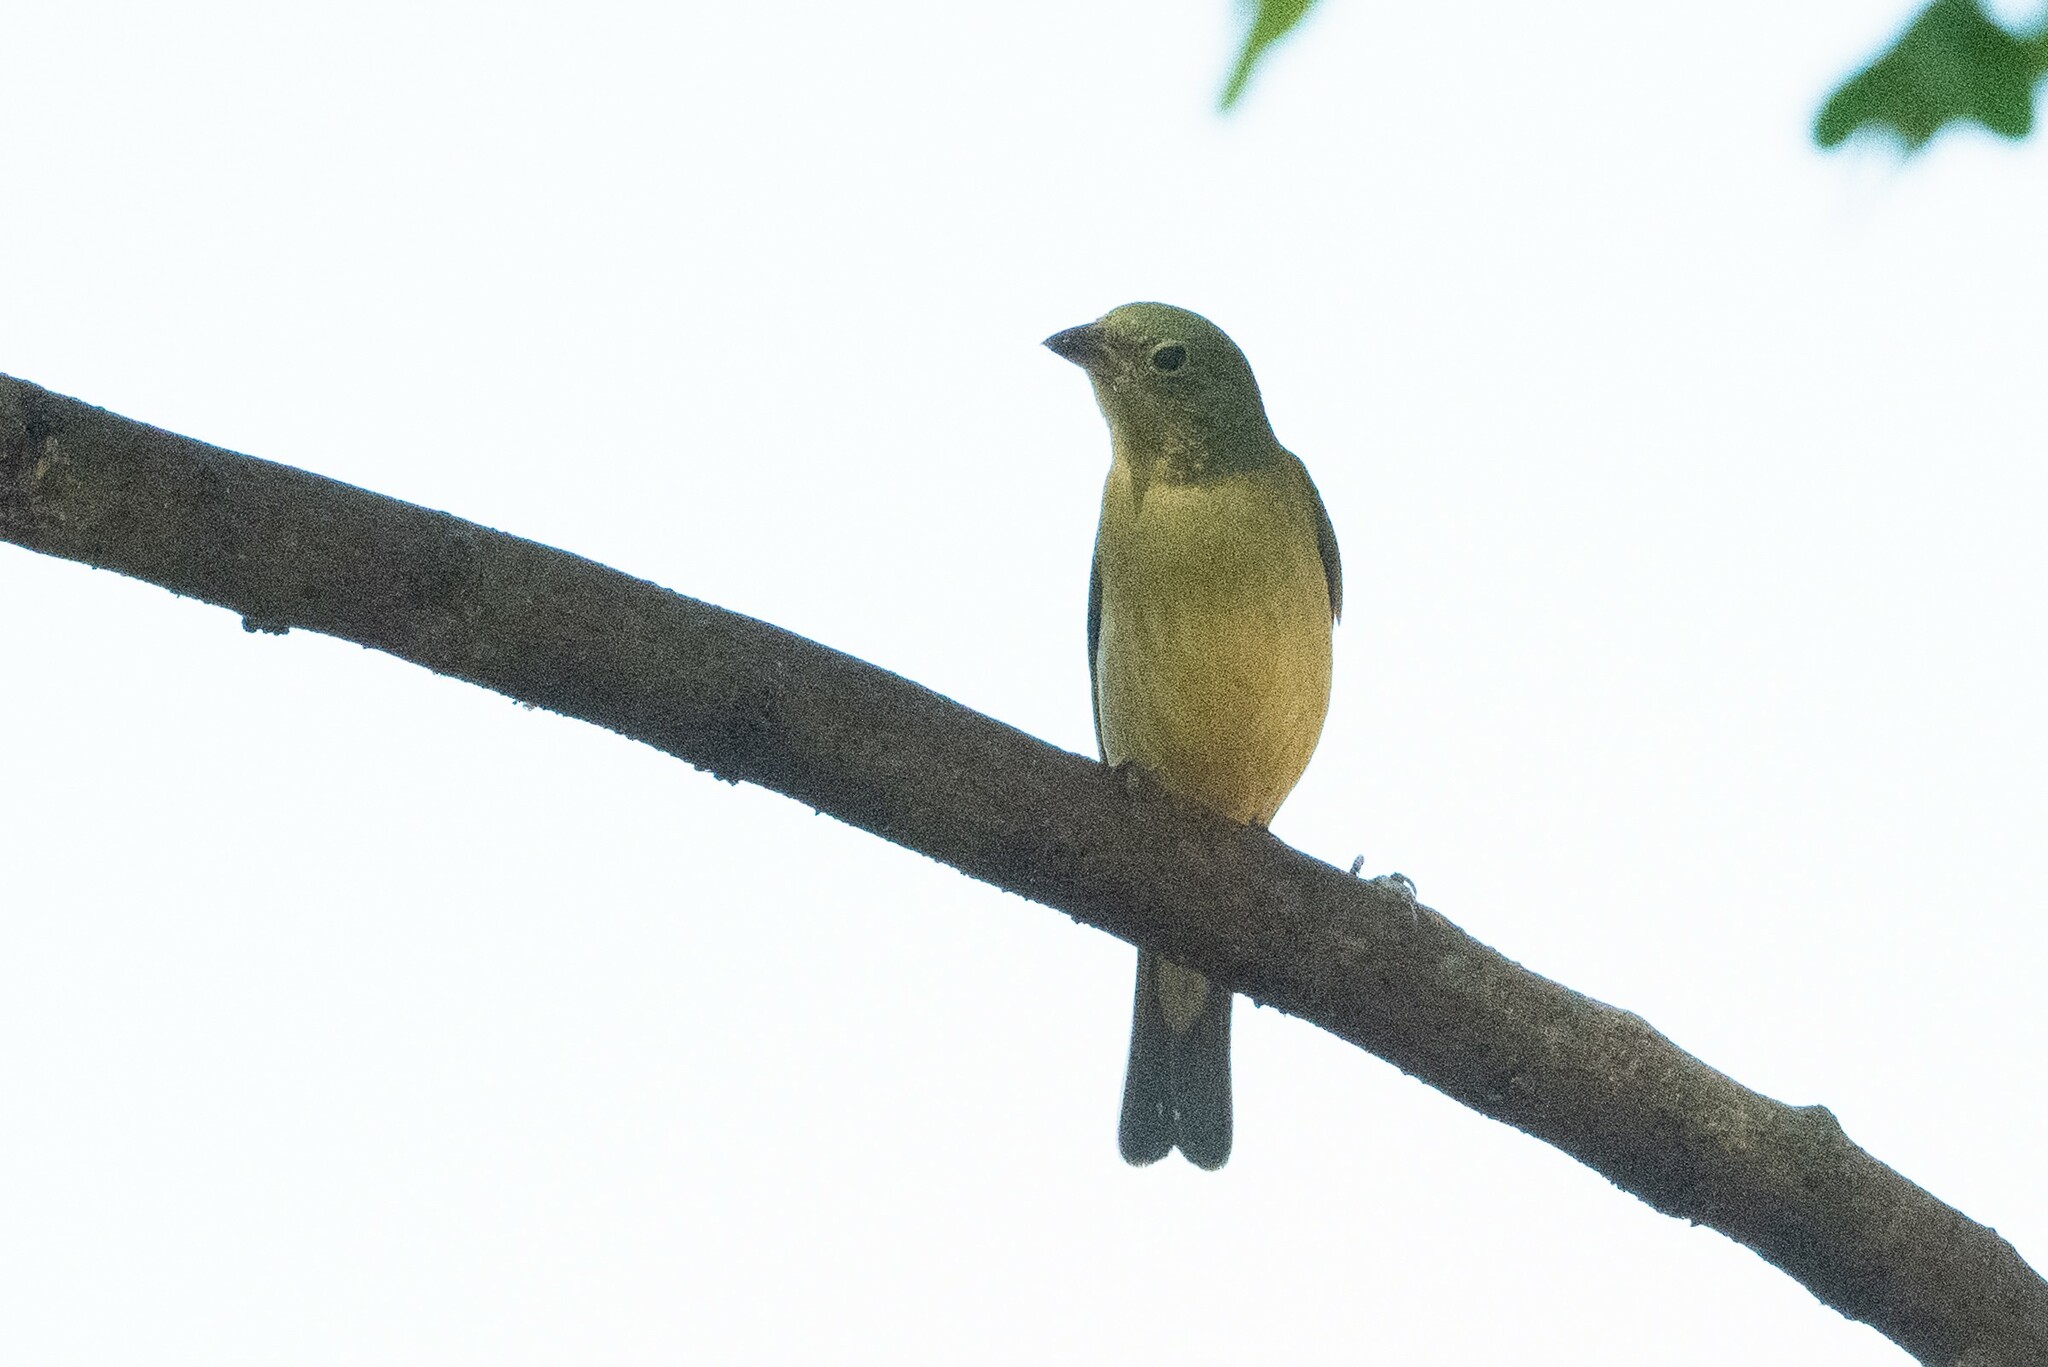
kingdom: Animalia
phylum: Chordata
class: Aves
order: Passeriformes
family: Cardinalidae
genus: Passerina
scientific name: Passerina ciris
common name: Painted bunting
